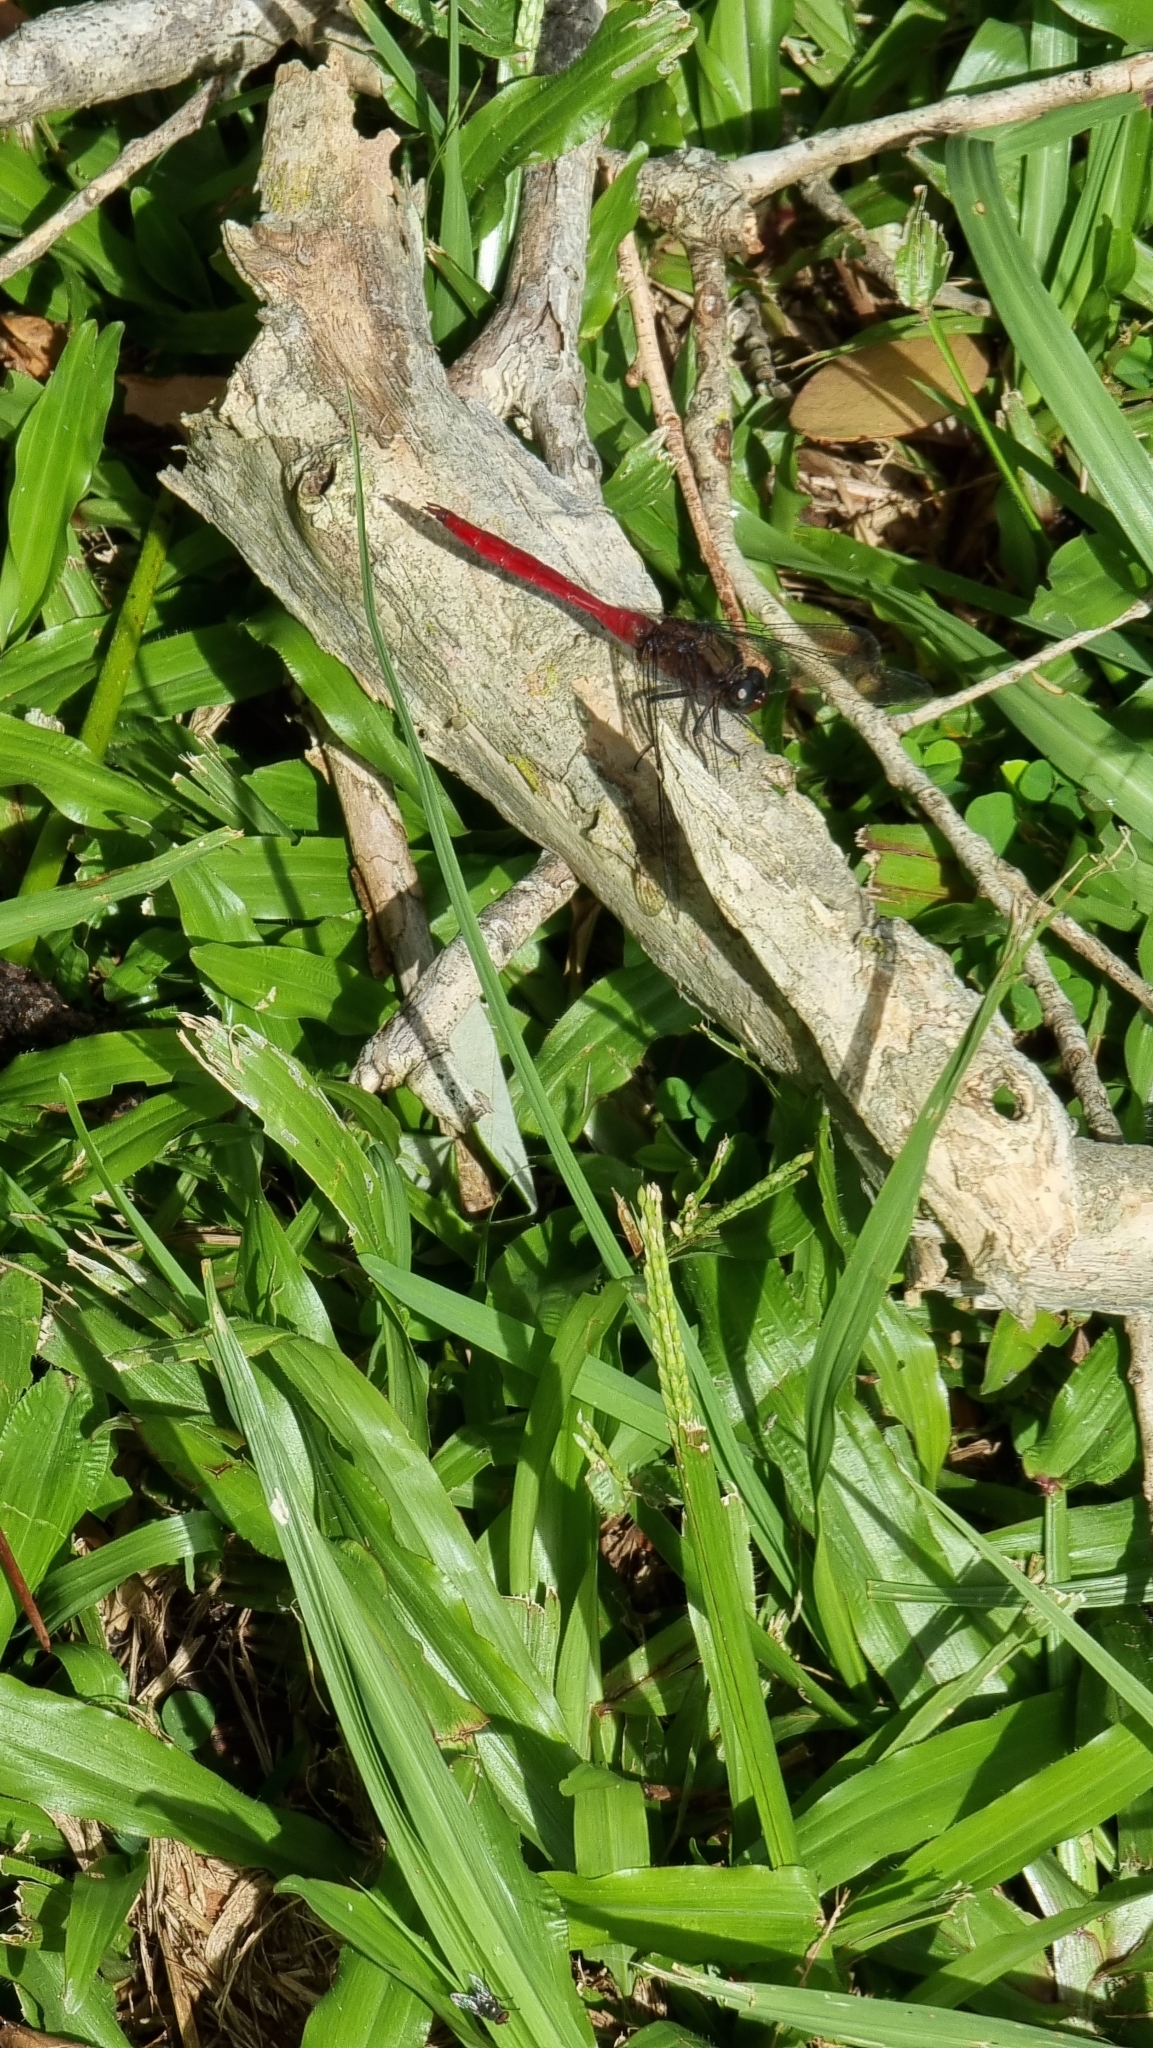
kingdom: Animalia
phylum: Arthropoda
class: Insecta
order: Odonata
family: Libellulidae
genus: Orthetrum
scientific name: Orthetrum villosovittatum
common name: Firery skimmer
